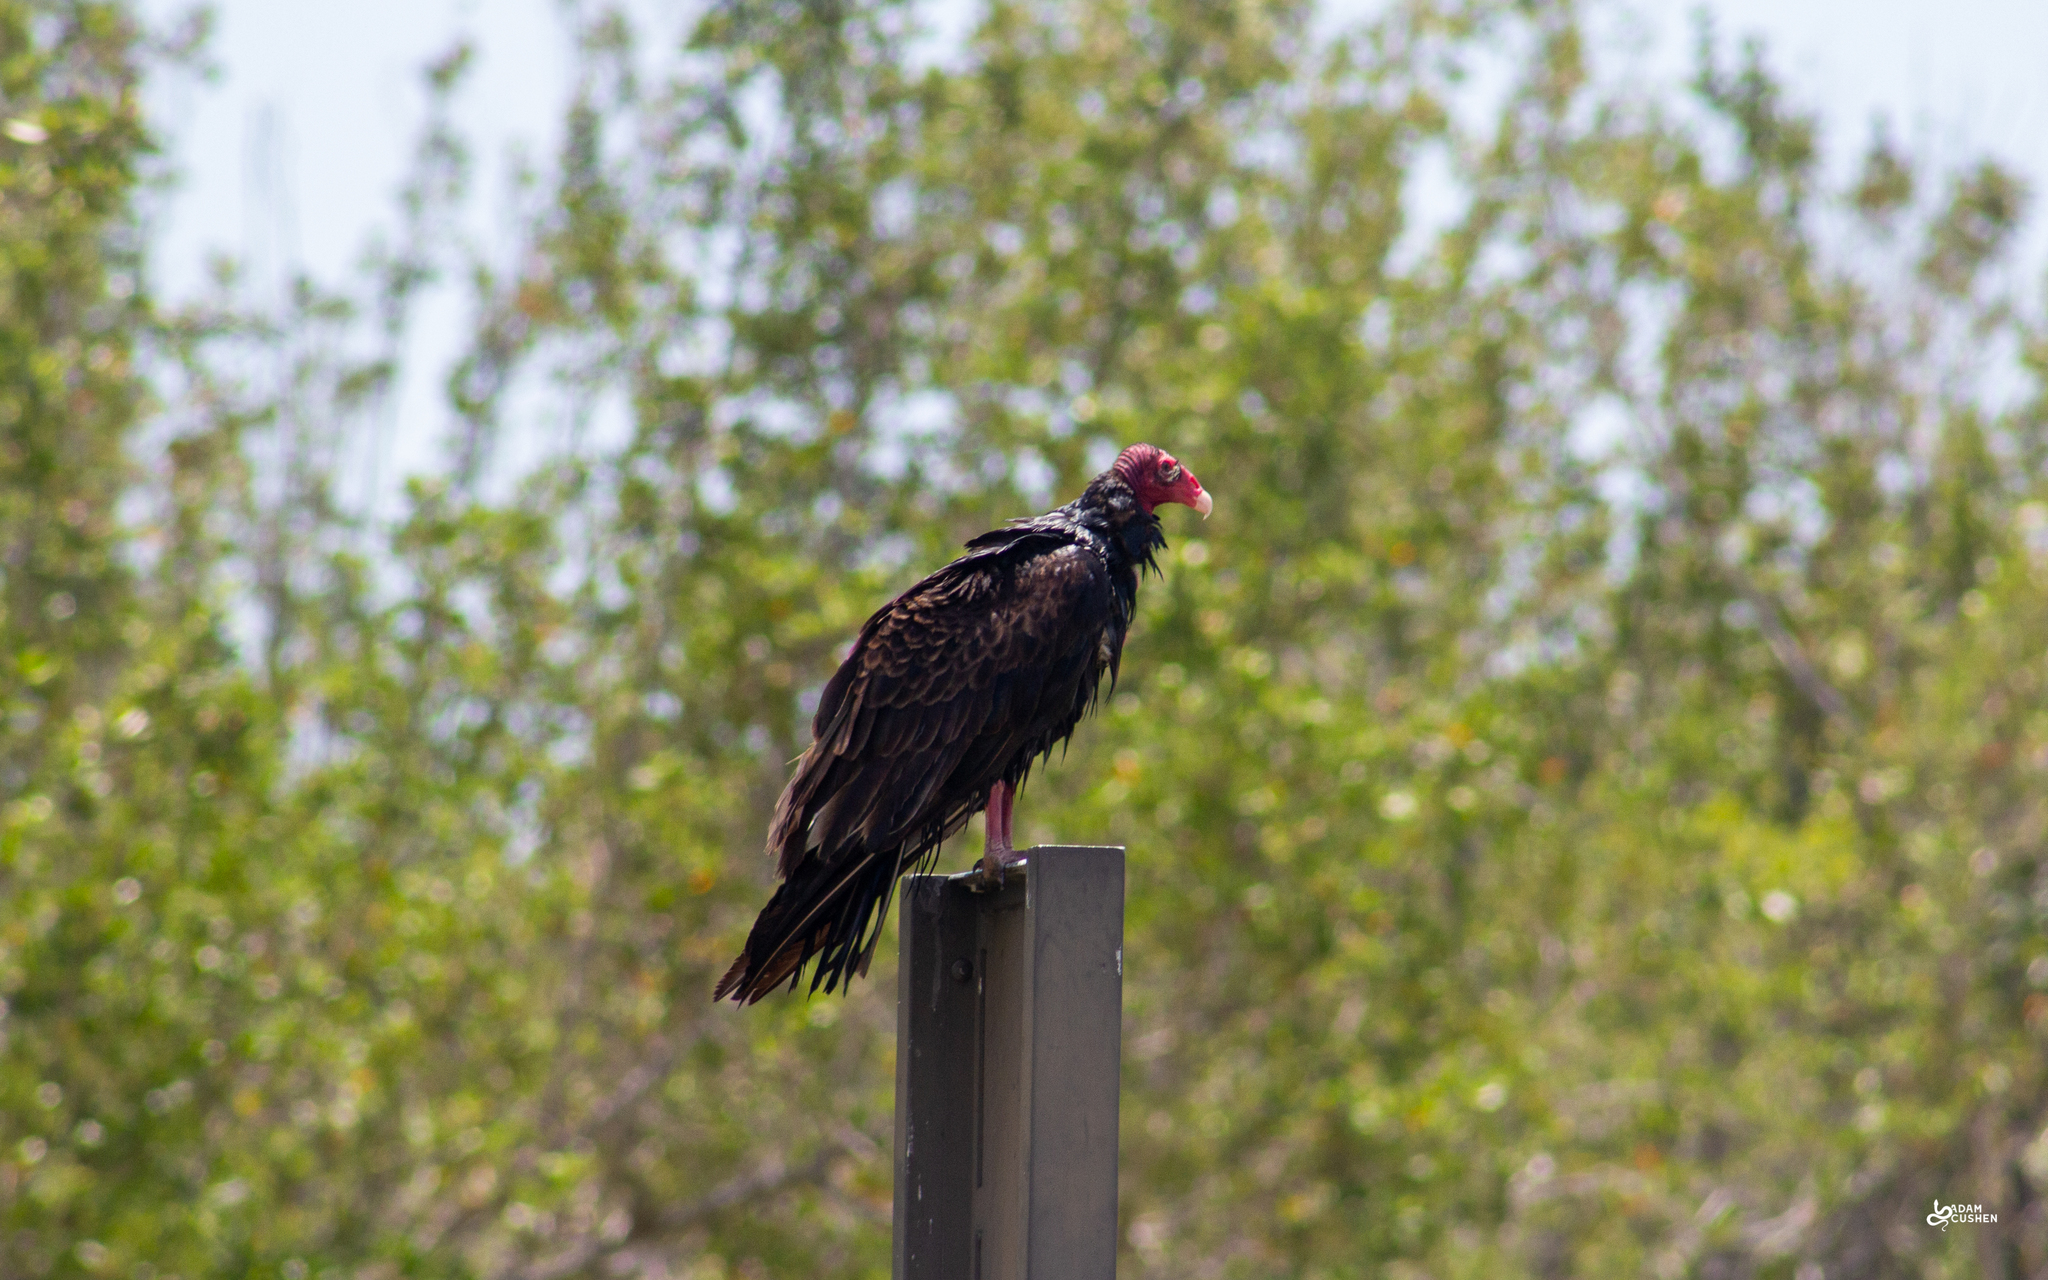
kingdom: Animalia
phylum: Chordata
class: Aves
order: Accipitriformes
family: Cathartidae
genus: Cathartes
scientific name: Cathartes aura
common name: Turkey vulture
